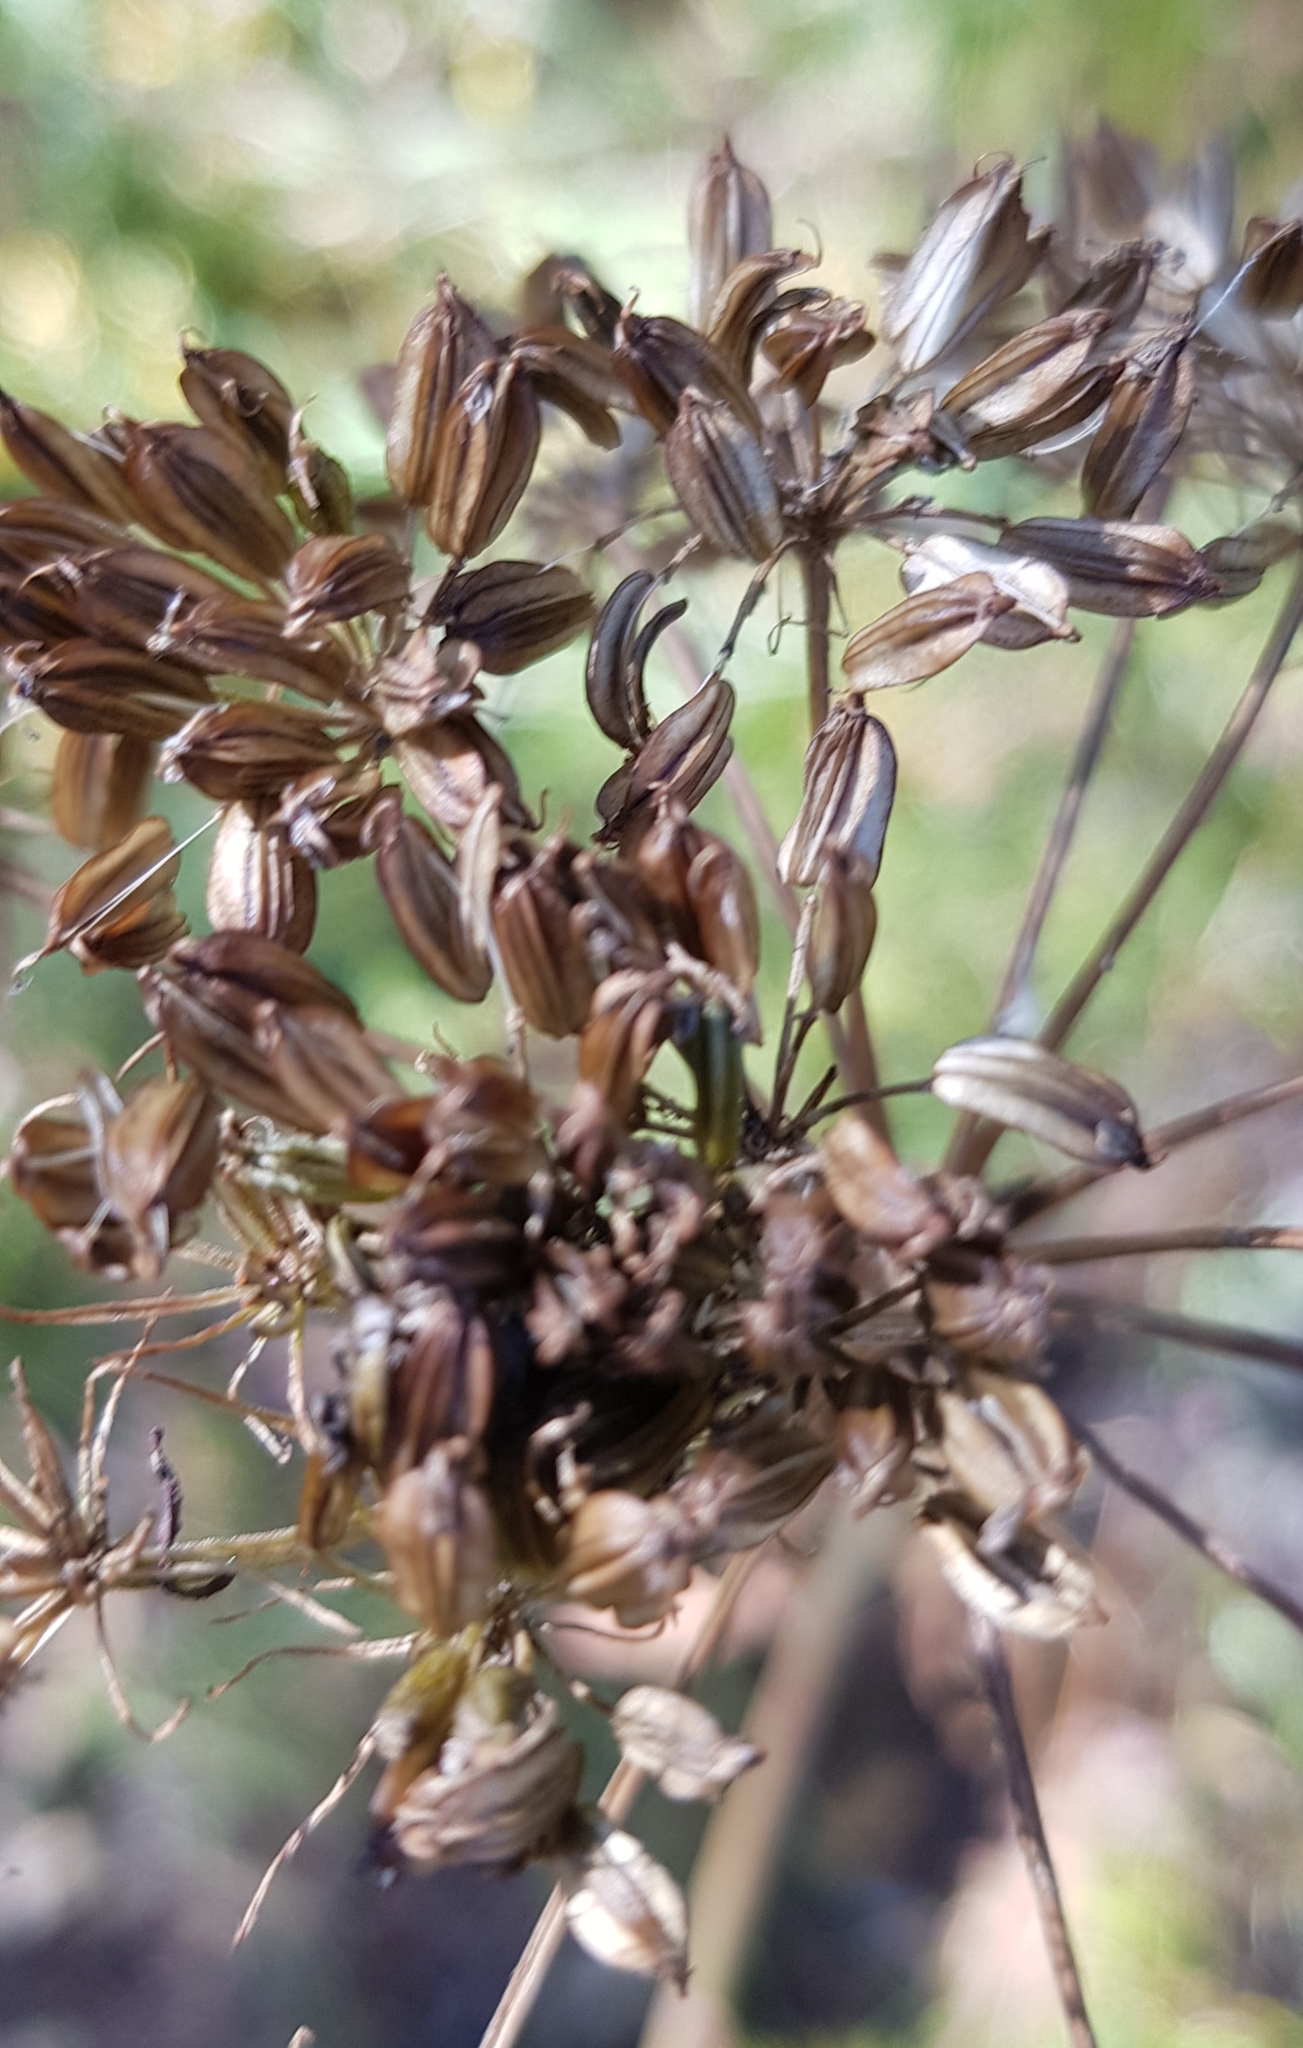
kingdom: Plantae
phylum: Tracheophyta
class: Magnoliopsida
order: Apiales
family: Apiaceae
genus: Cenolophium
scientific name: Cenolophium fischeri
